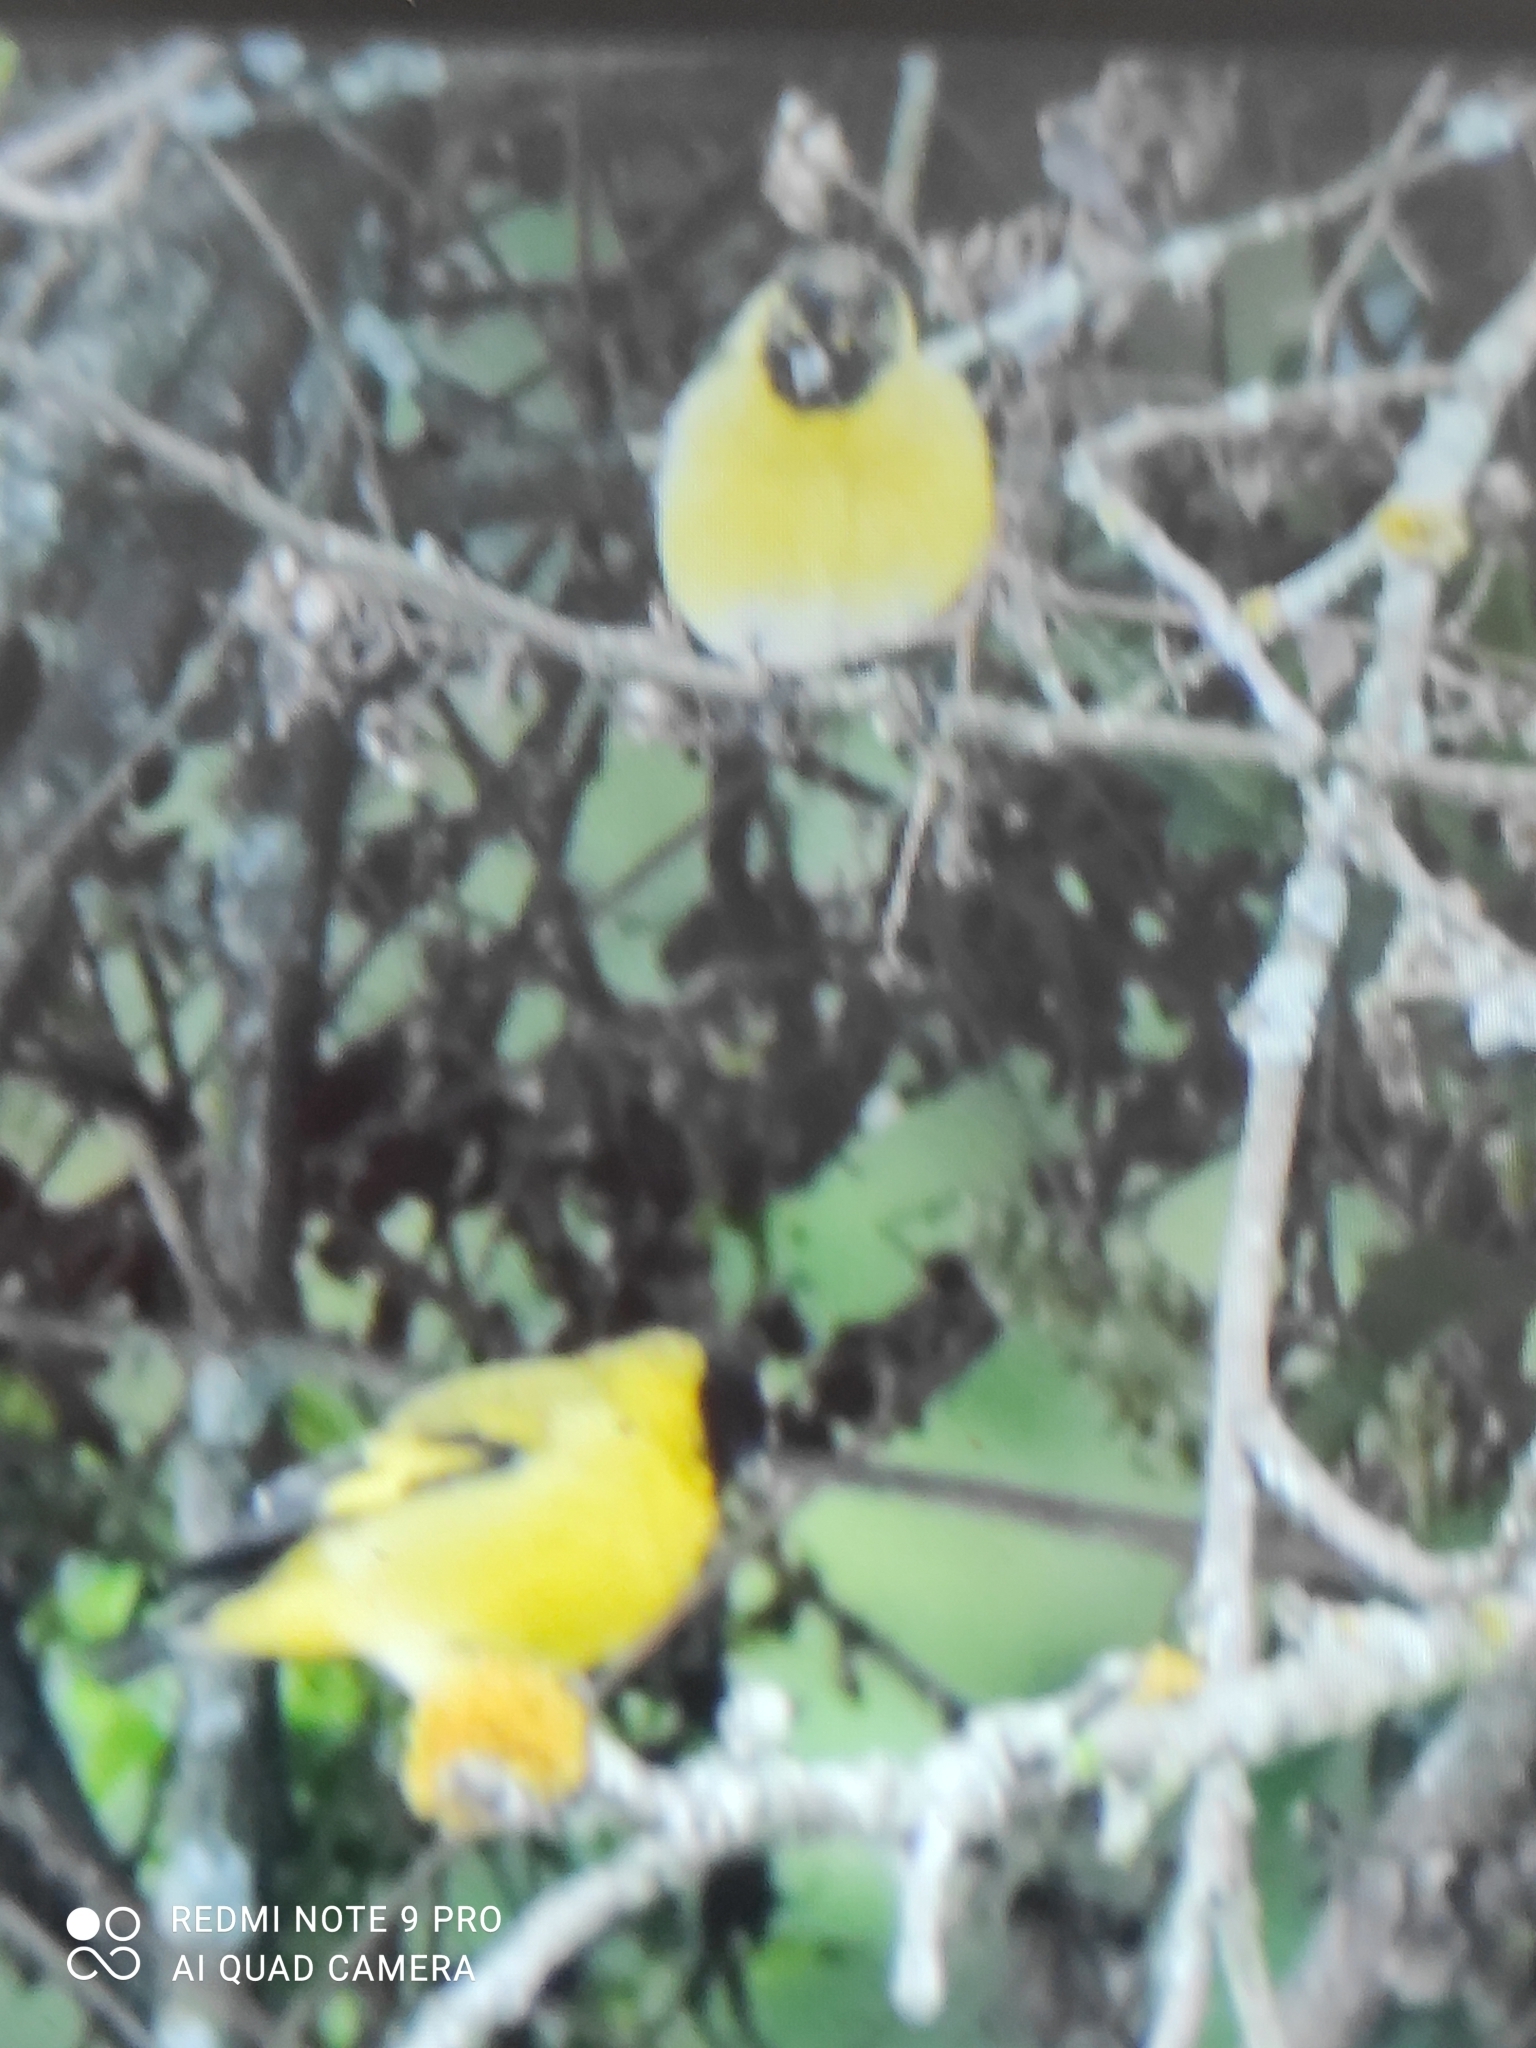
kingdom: Animalia
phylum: Chordata
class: Aves
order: Passeriformes
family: Fringillidae
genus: Spinus
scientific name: Spinus magellanicus
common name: Hooded siskin
